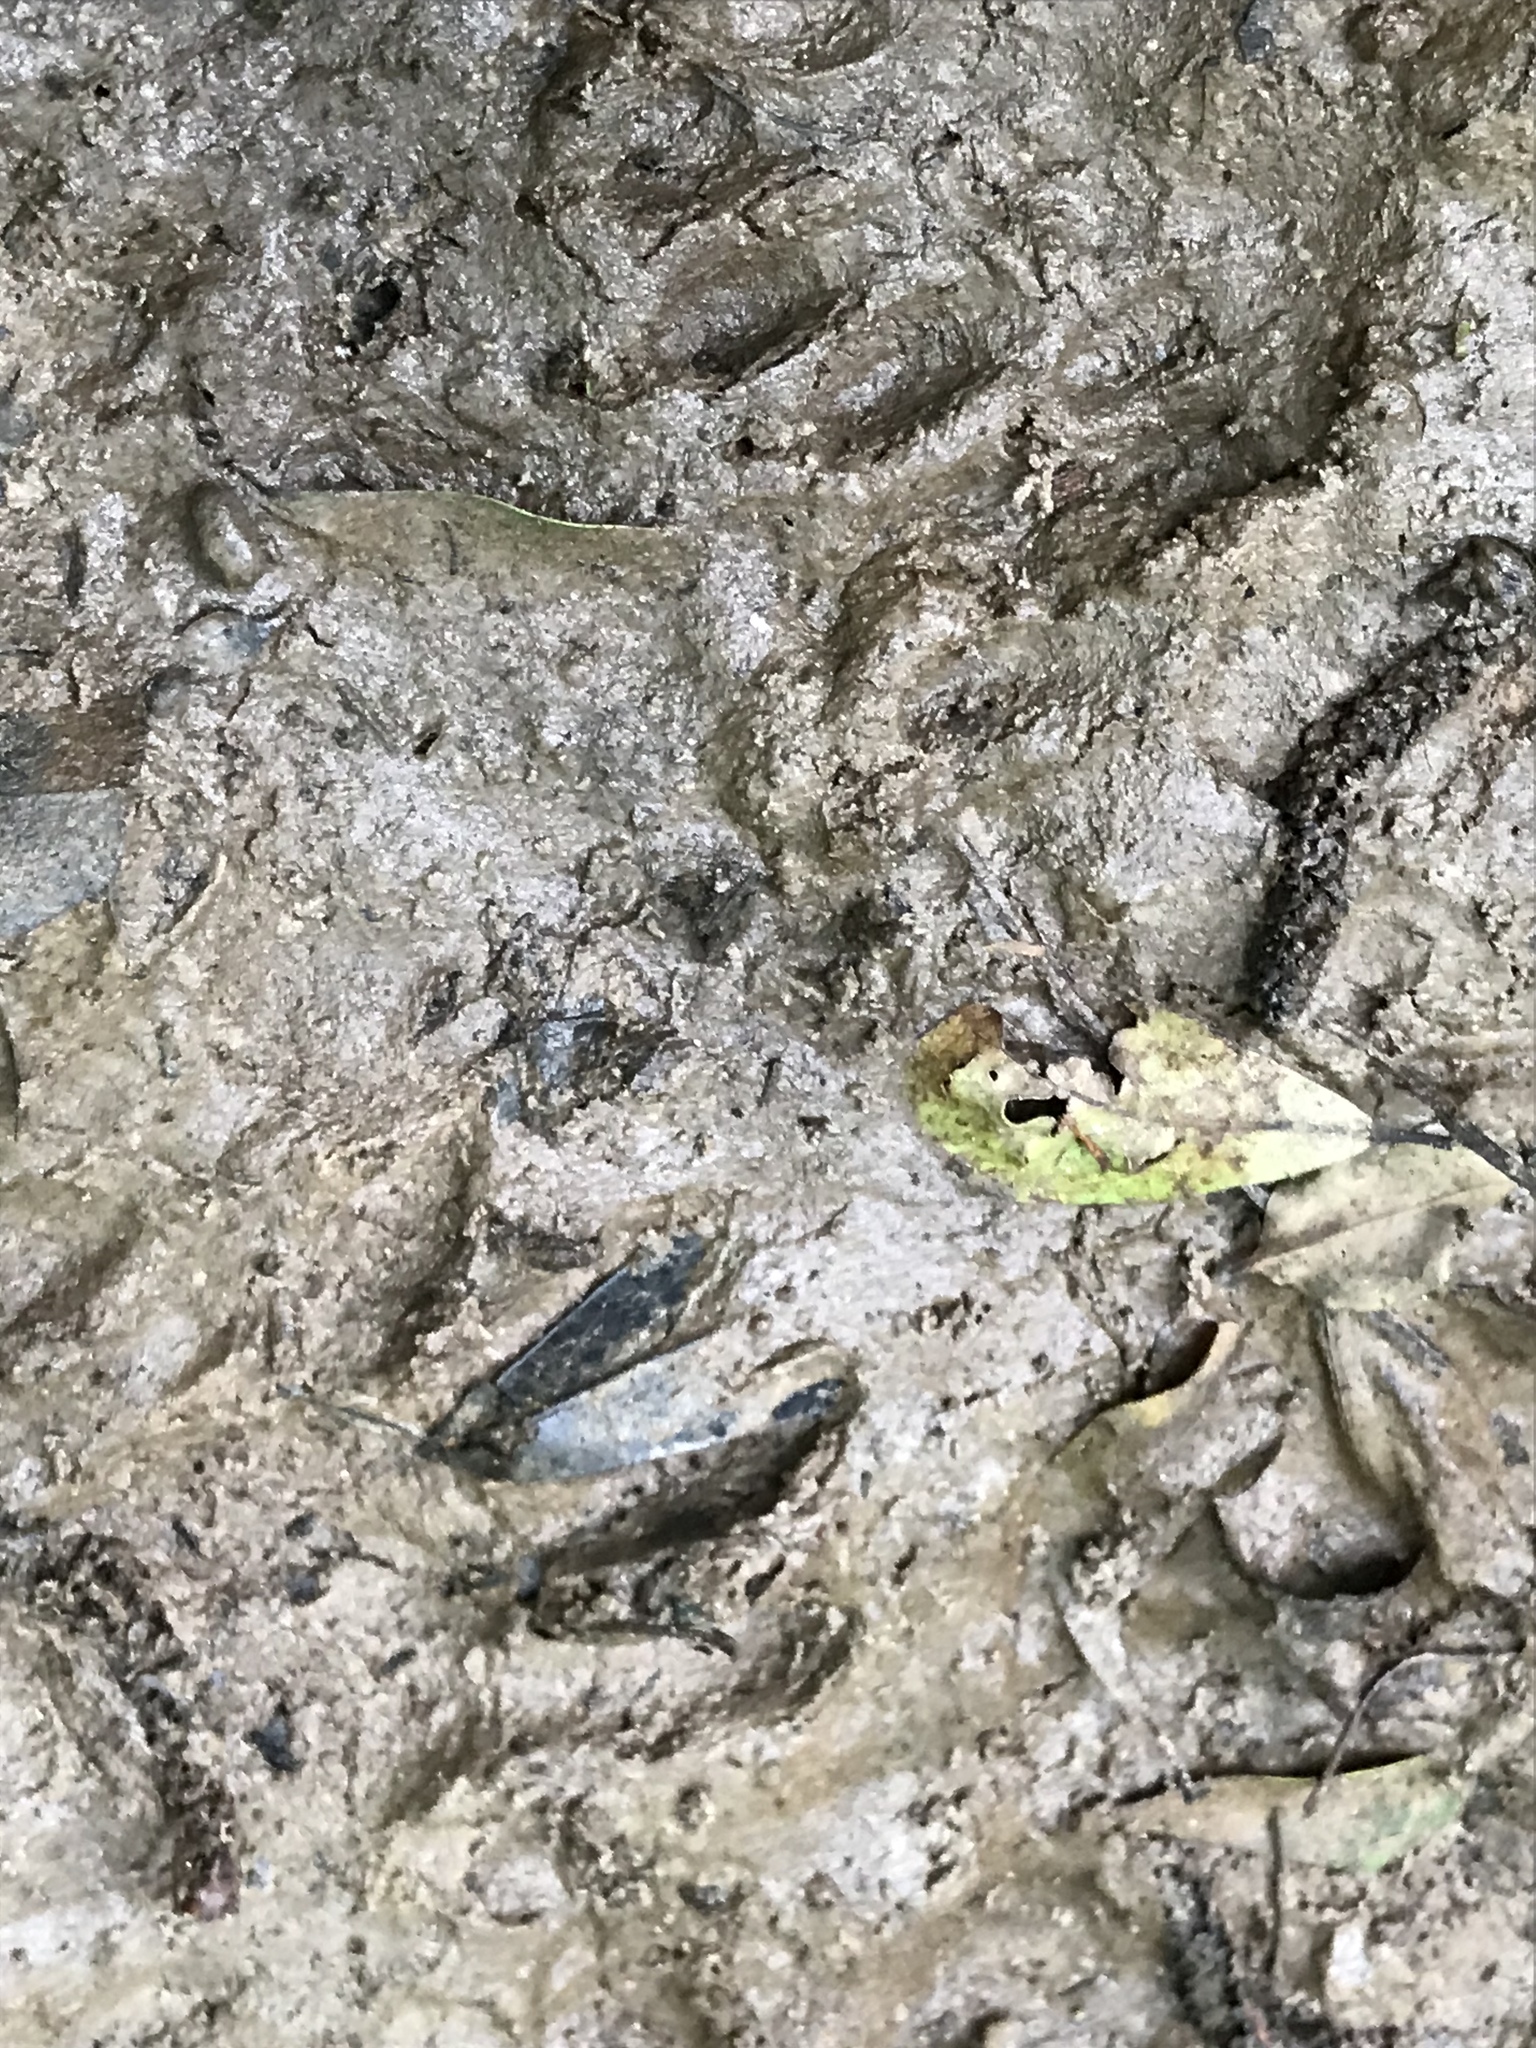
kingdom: Animalia
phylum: Chordata
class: Mammalia
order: Carnivora
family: Procyonidae
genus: Procyon
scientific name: Procyon lotor
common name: Raccoon
